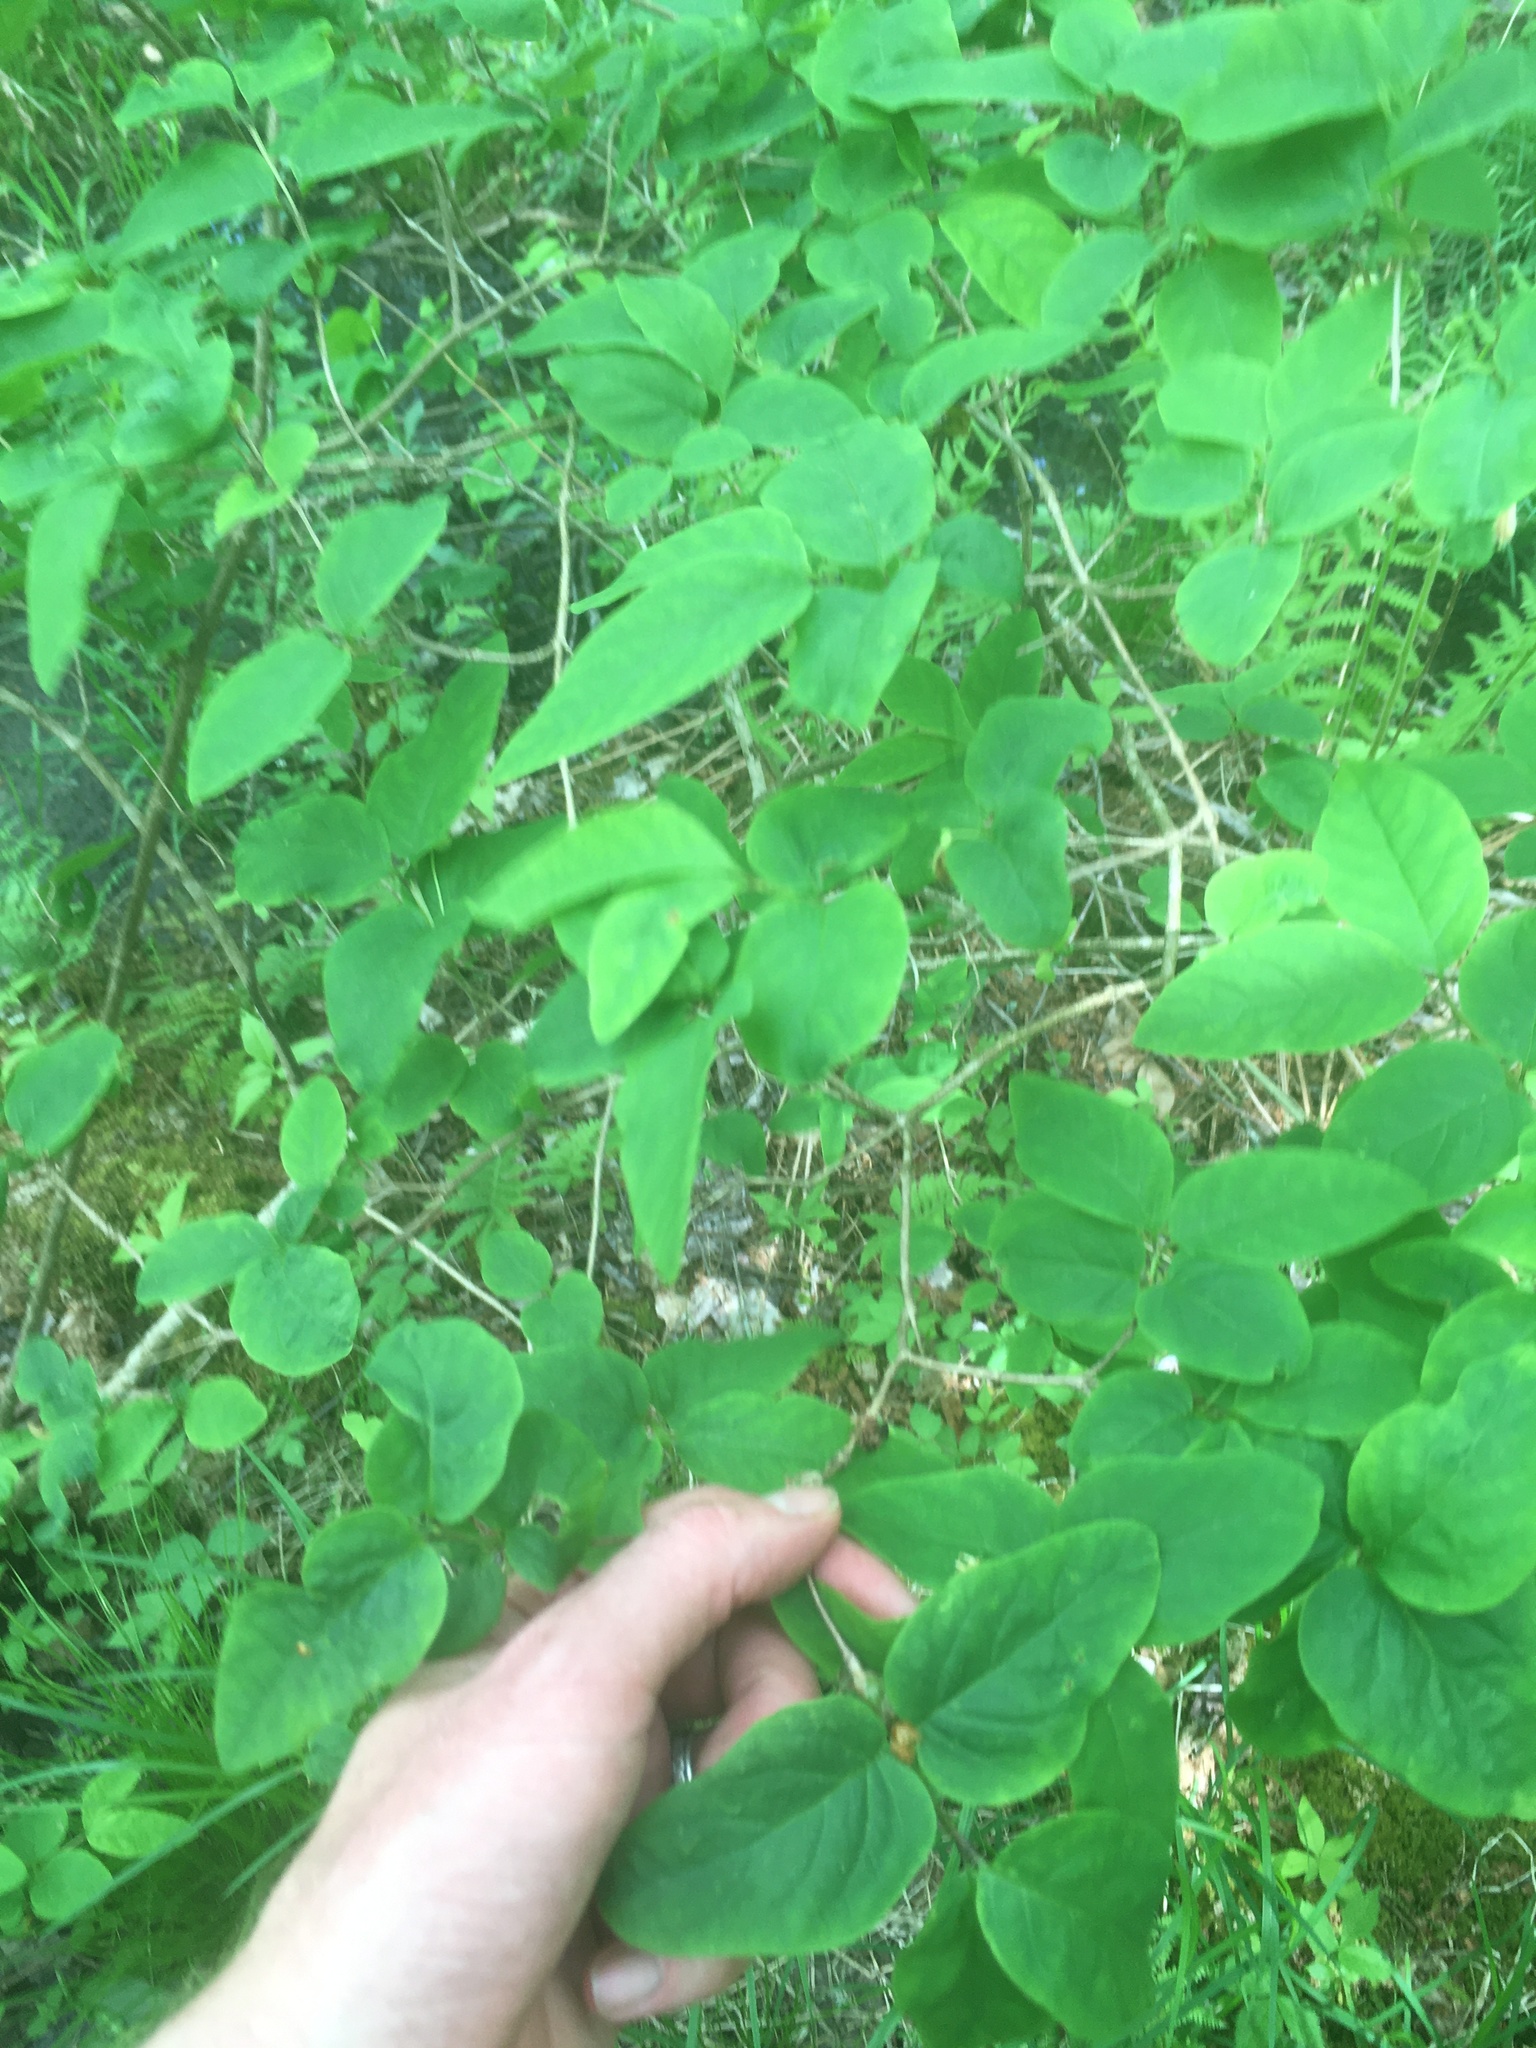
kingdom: Plantae
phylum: Tracheophyta
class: Magnoliopsida
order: Dipsacales
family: Caprifoliaceae
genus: Lonicera
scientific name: Lonicera canadensis
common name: American fly-honeysuckle
